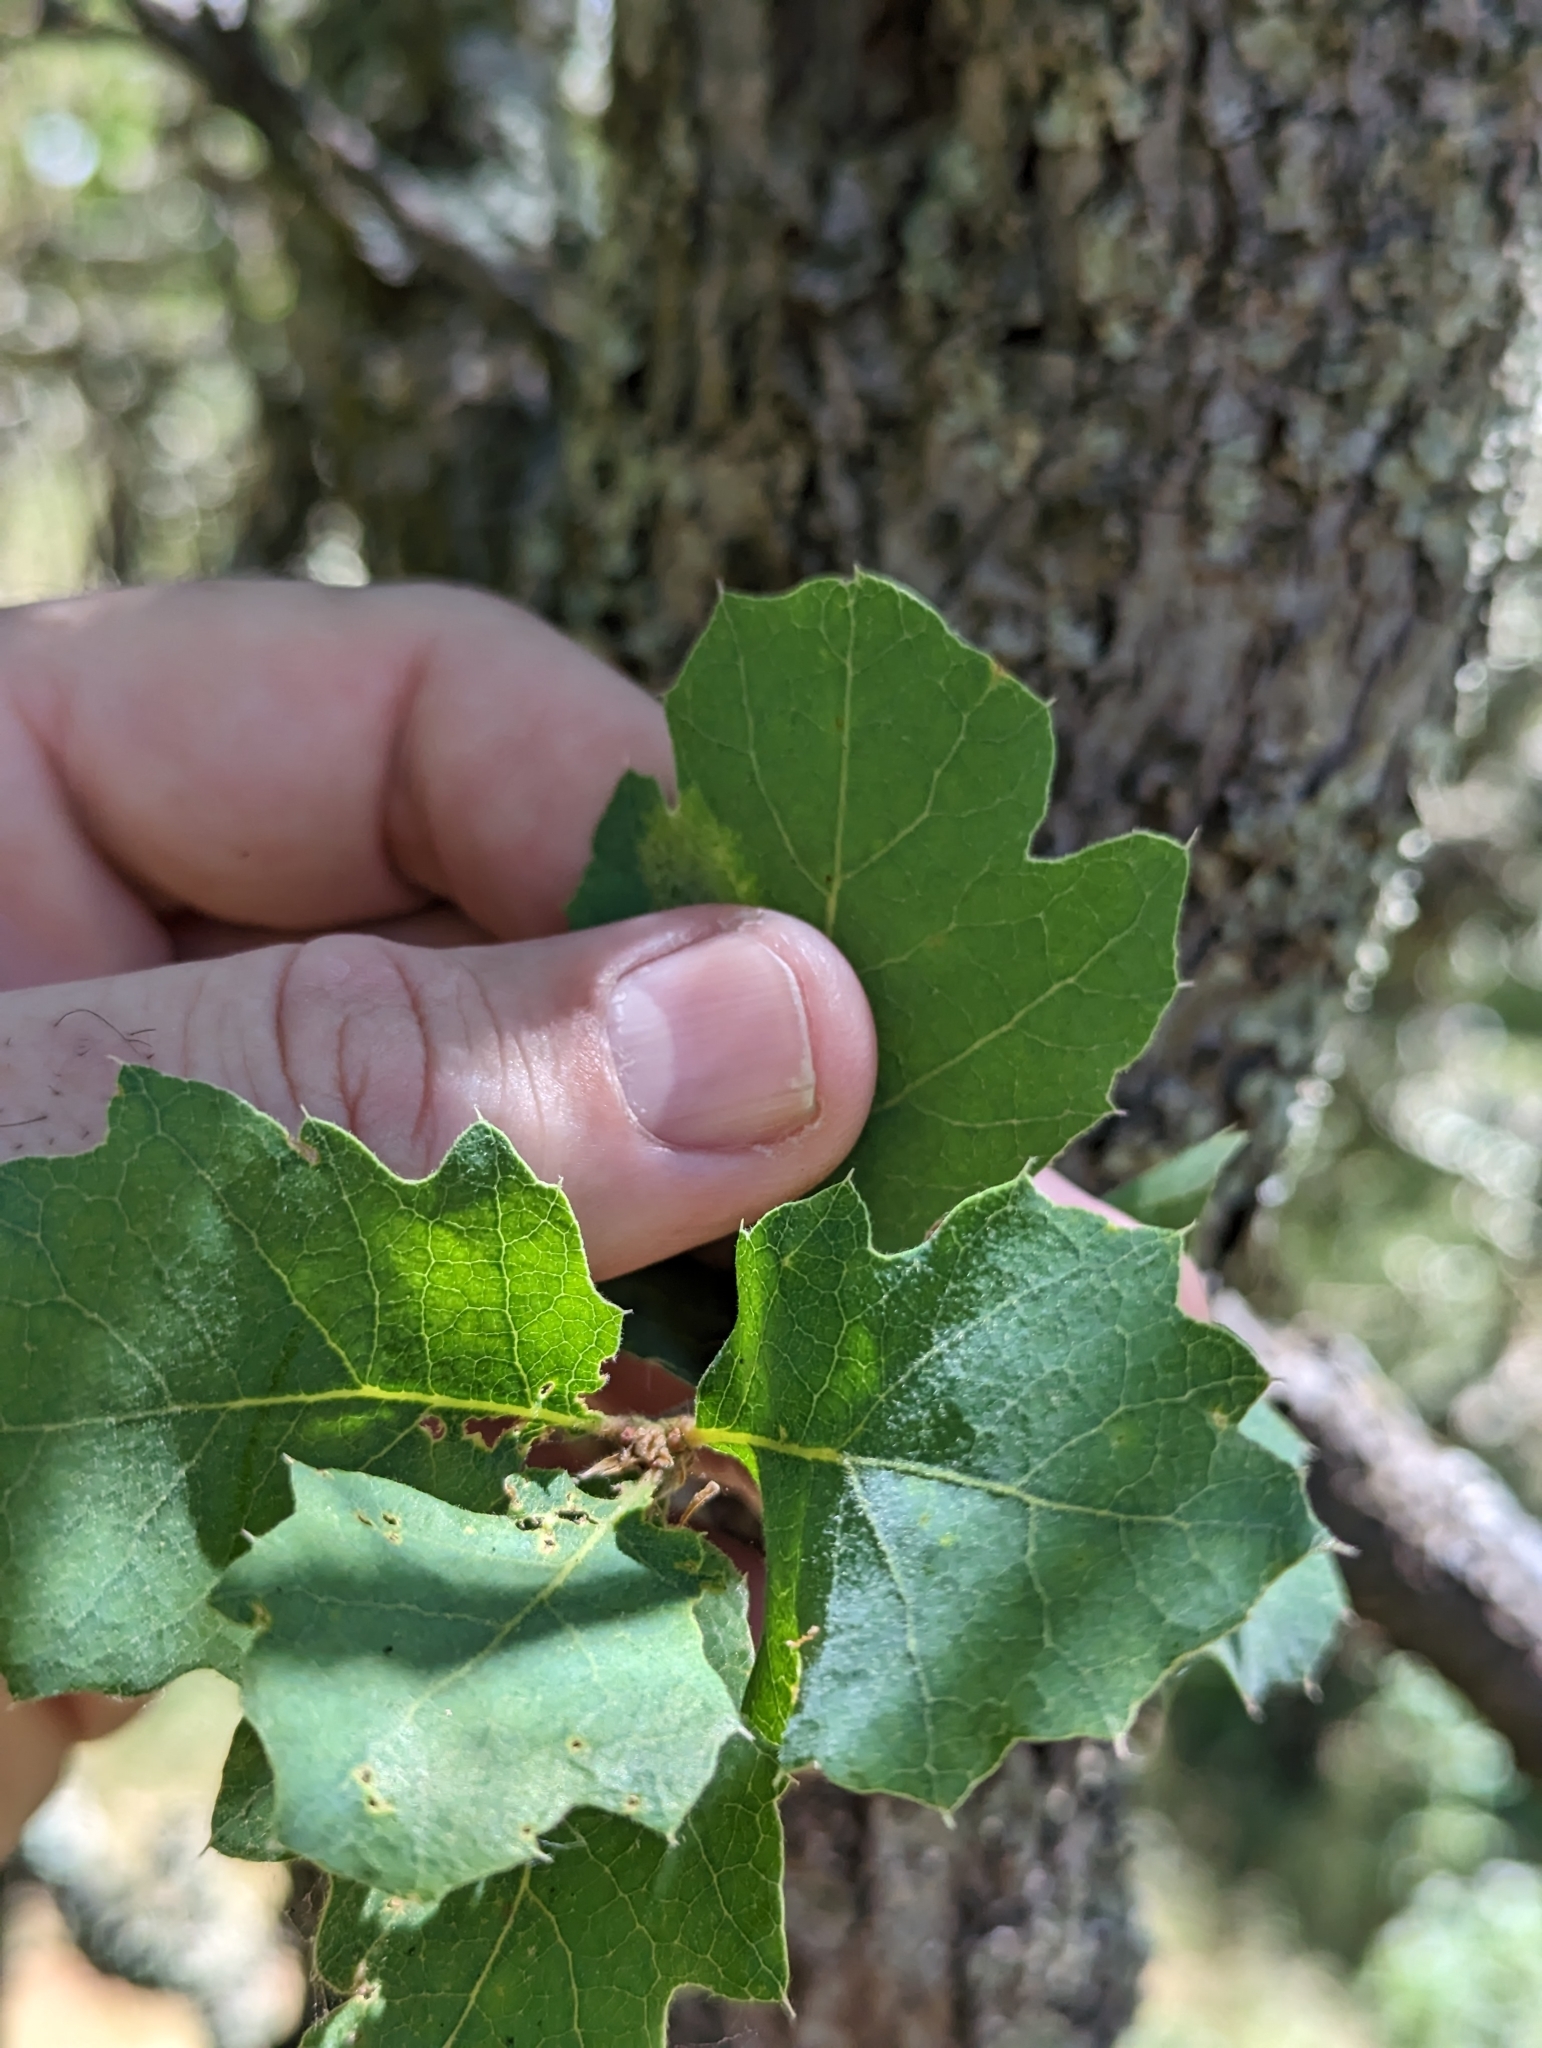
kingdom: Plantae
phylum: Tracheophyta
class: Magnoliopsida
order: Fagales
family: Fagaceae
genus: Quercus
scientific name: Quercus douglasii
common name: Blue oak
